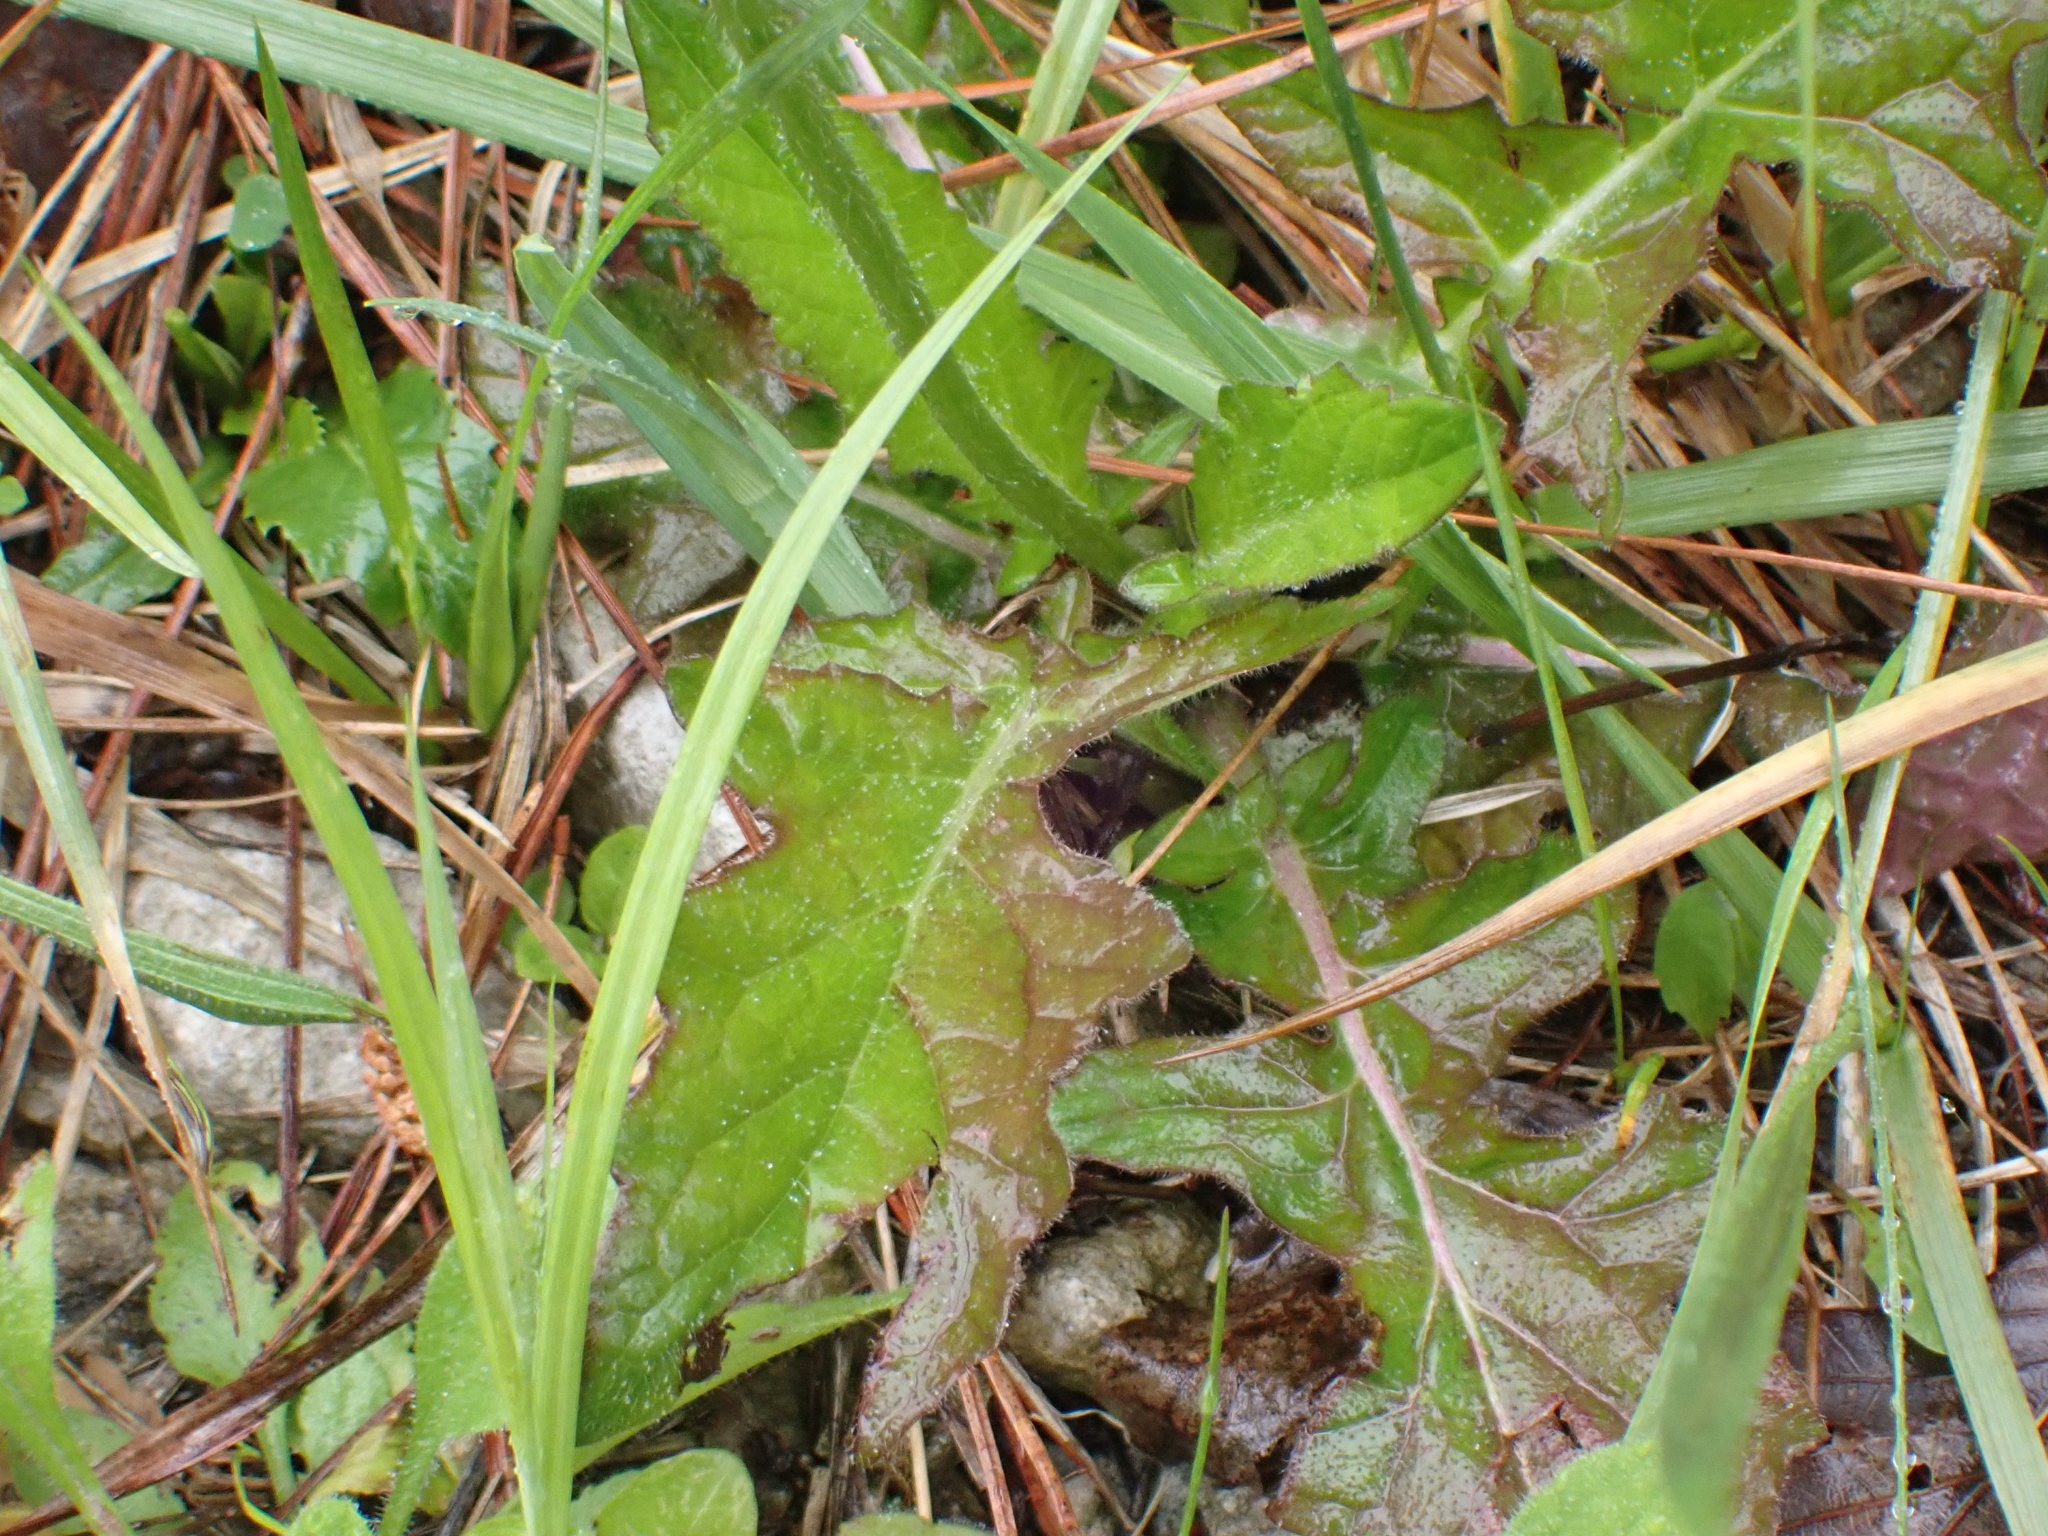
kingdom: Plantae
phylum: Tracheophyta
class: Magnoliopsida
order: Lamiales
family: Lamiaceae
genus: Salvia
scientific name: Salvia lyrata
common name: Cancerweed
